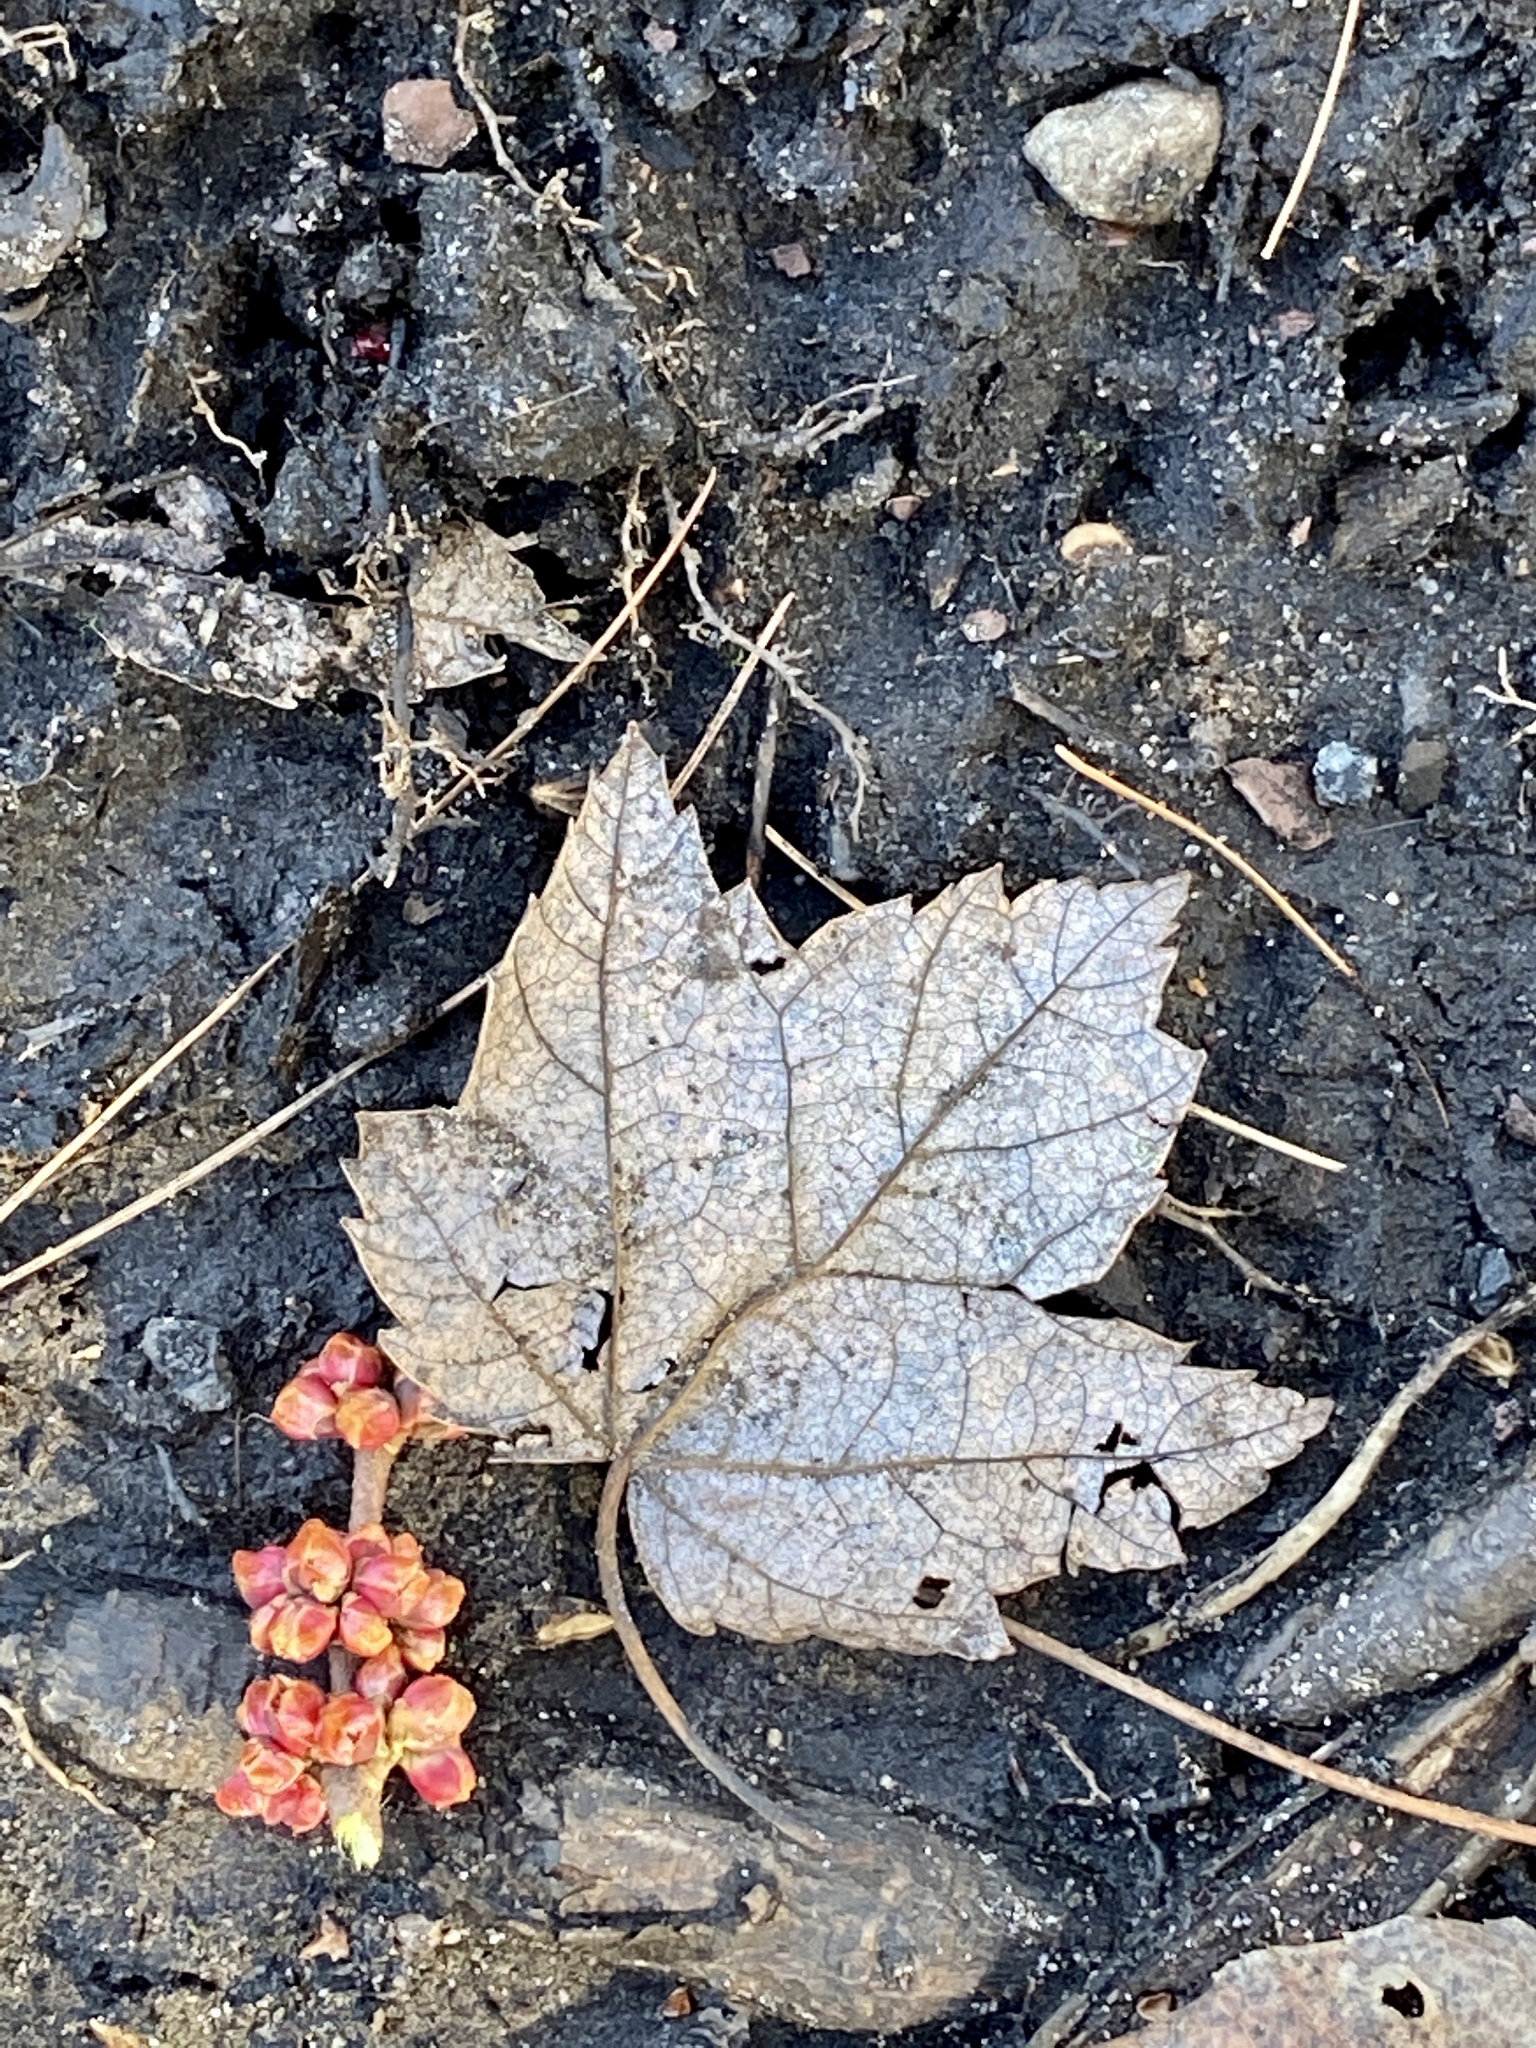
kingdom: Plantae
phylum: Tracheophyta
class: Magnoliopsida
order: Sapindales
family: Sapindaceae
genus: Acer
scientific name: Acer rubrum
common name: Red maple
